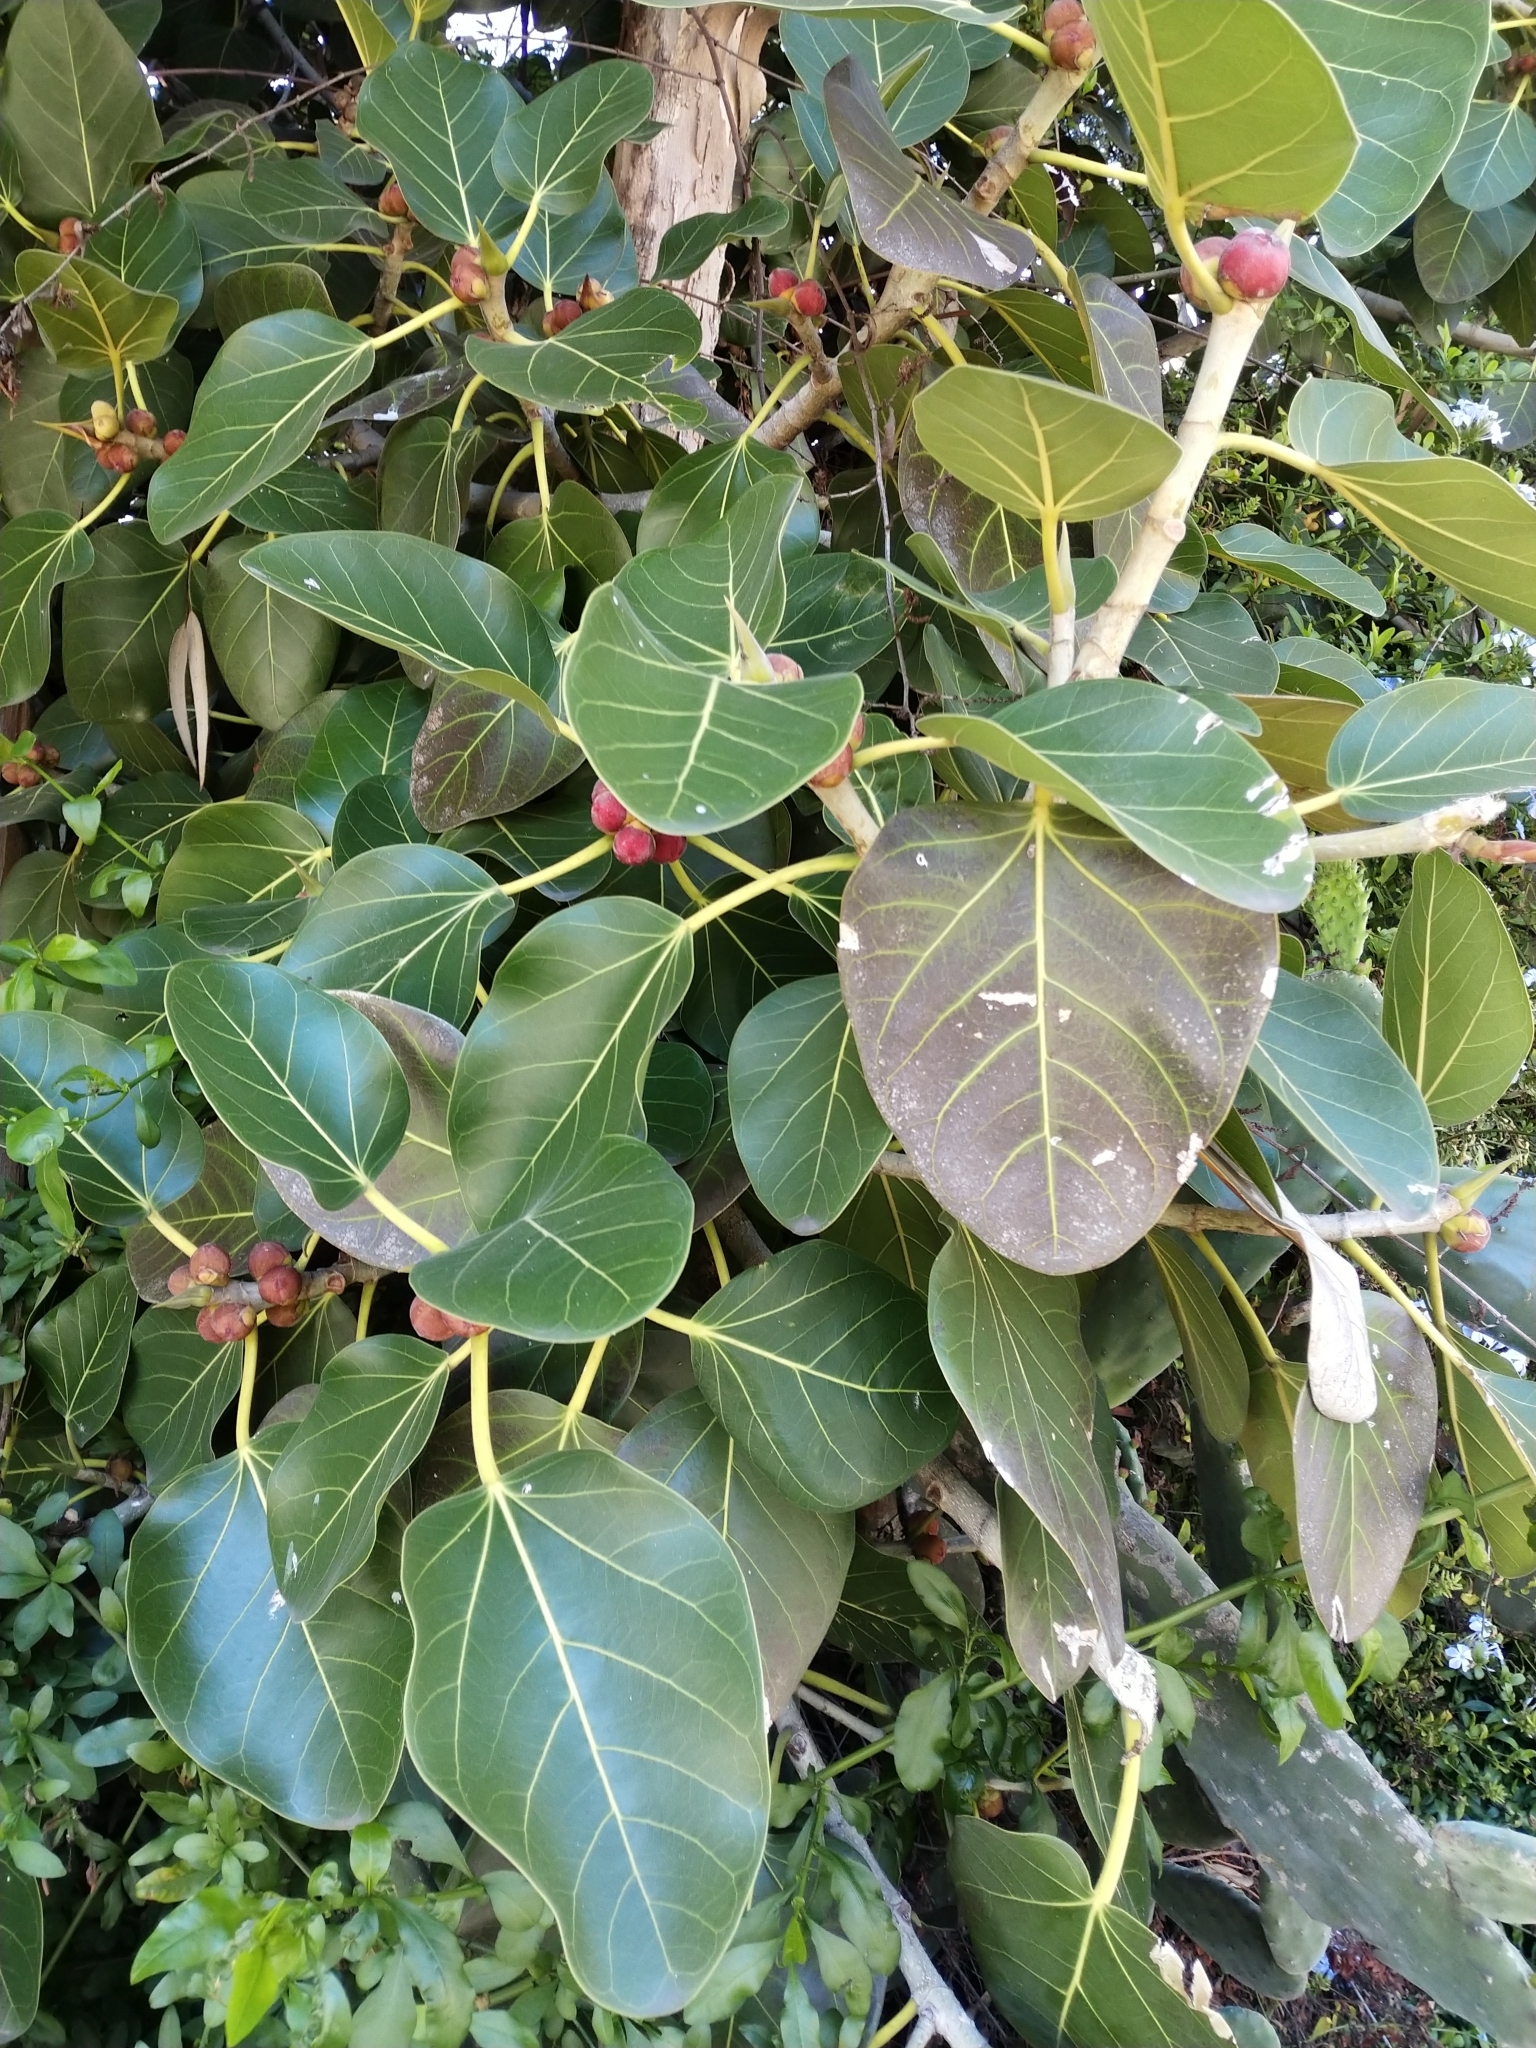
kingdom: Plantae
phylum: Tracheophyta
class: Magnoliopsida
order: Rosales
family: Moraceae
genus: Ficus
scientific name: Ficus benghalensis
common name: Indian banyan
